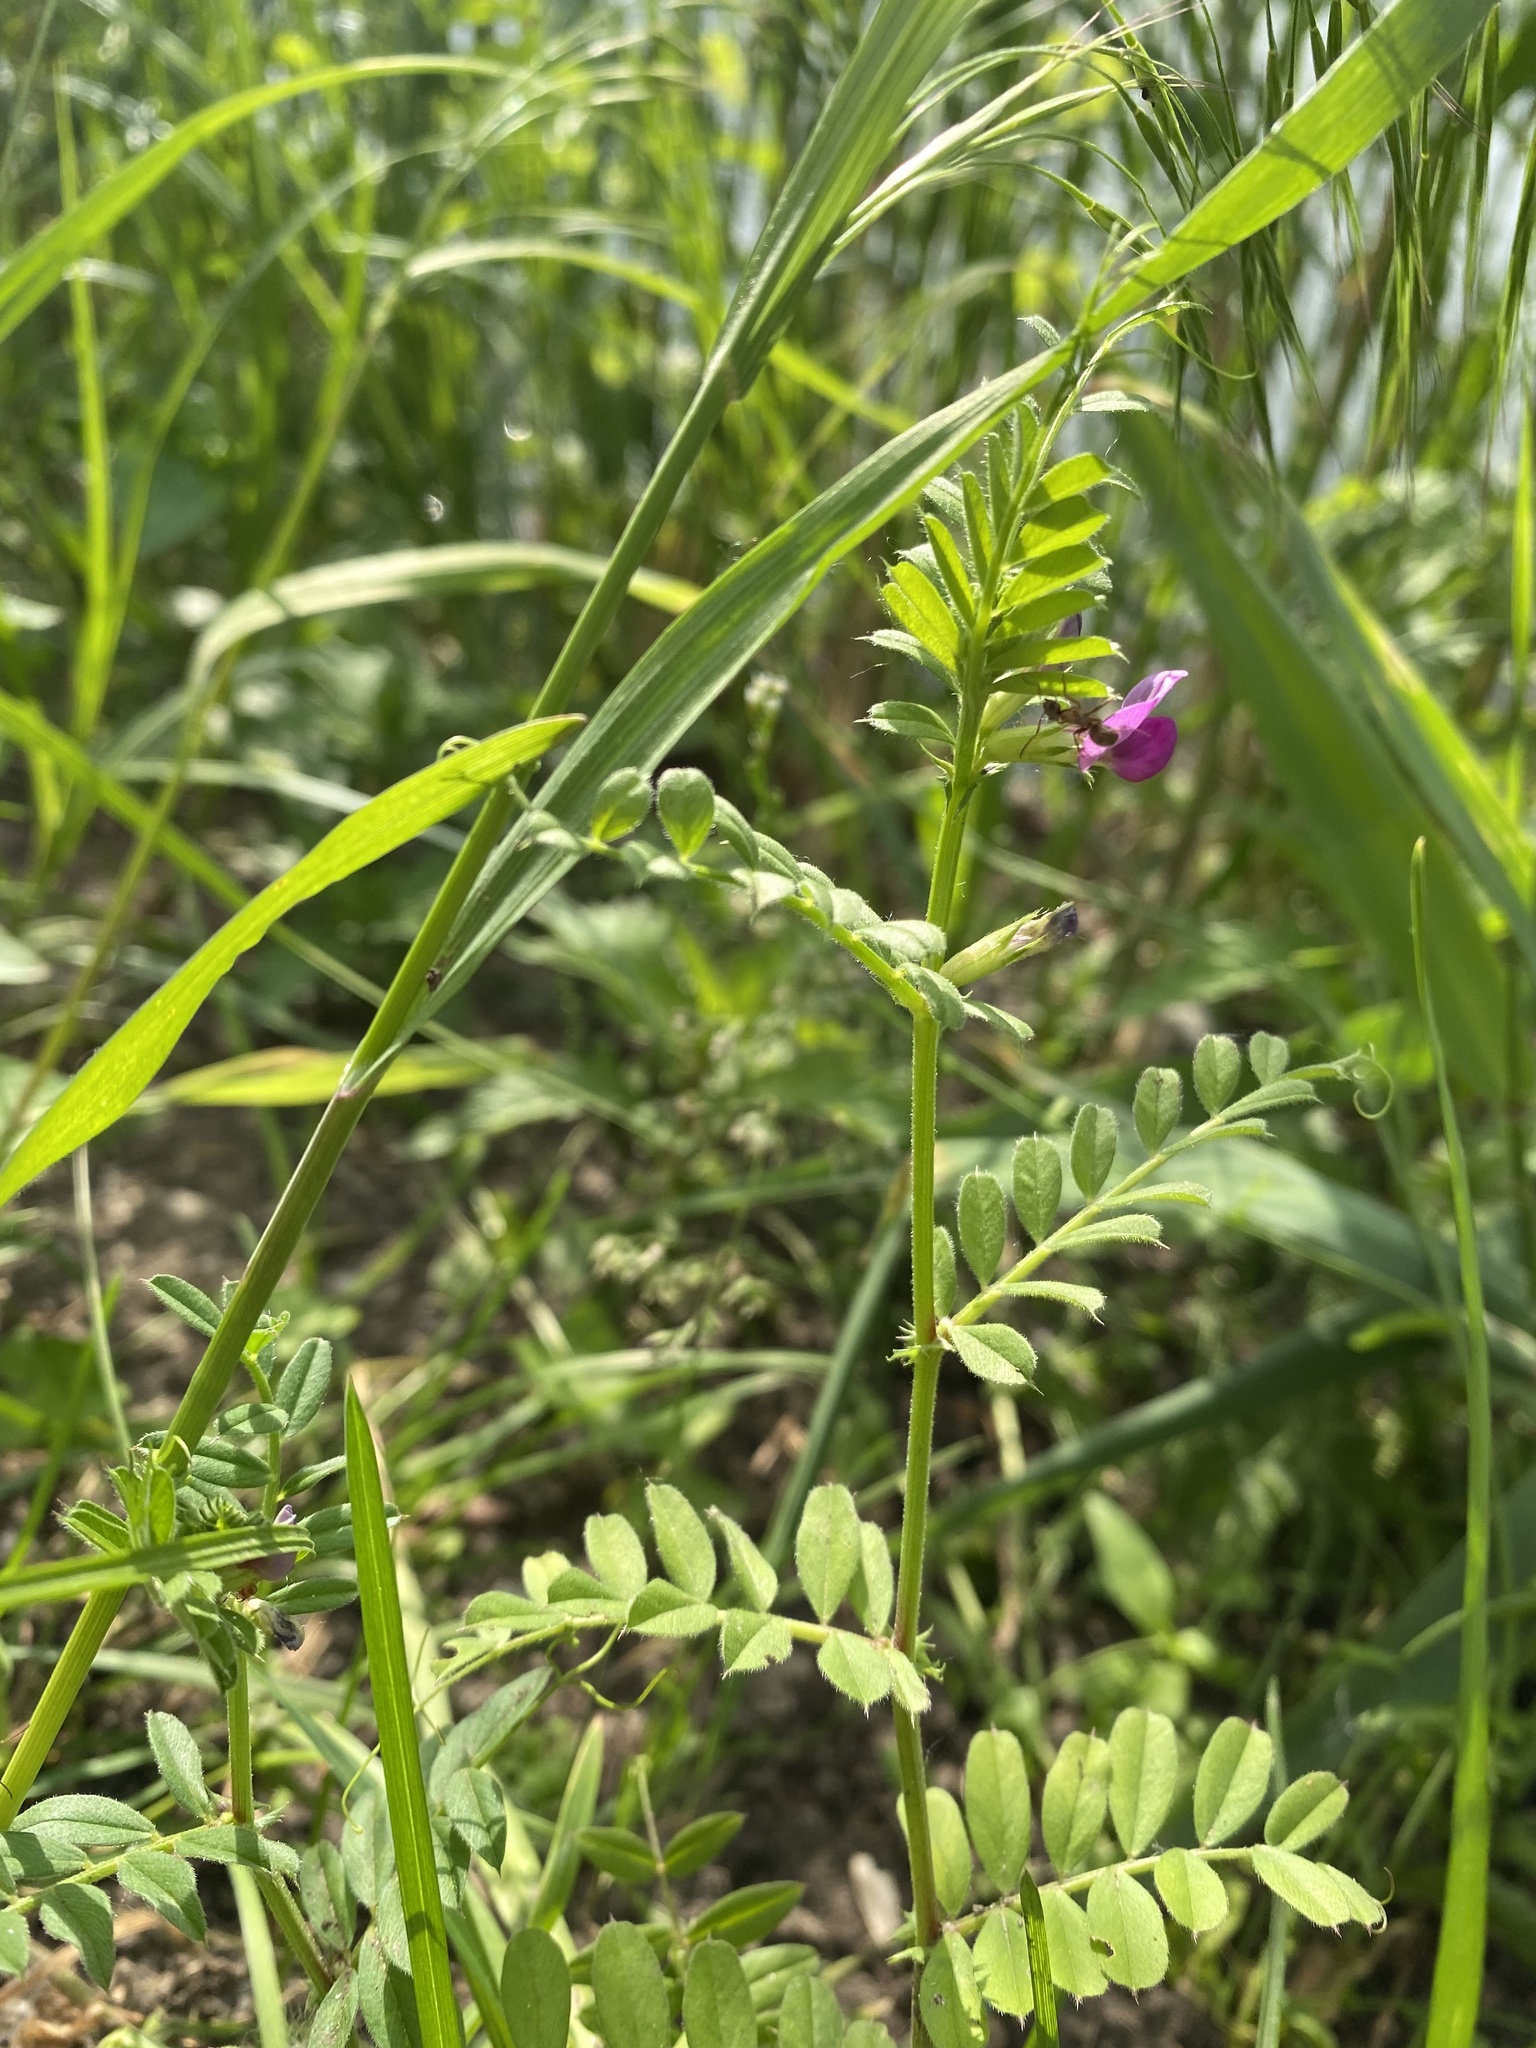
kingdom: Plantae
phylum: Tracheophyta
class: Magnoliopsida
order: Fabales
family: Fabaceae
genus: Vicia
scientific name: Vicia sativa
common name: Garden vetch
